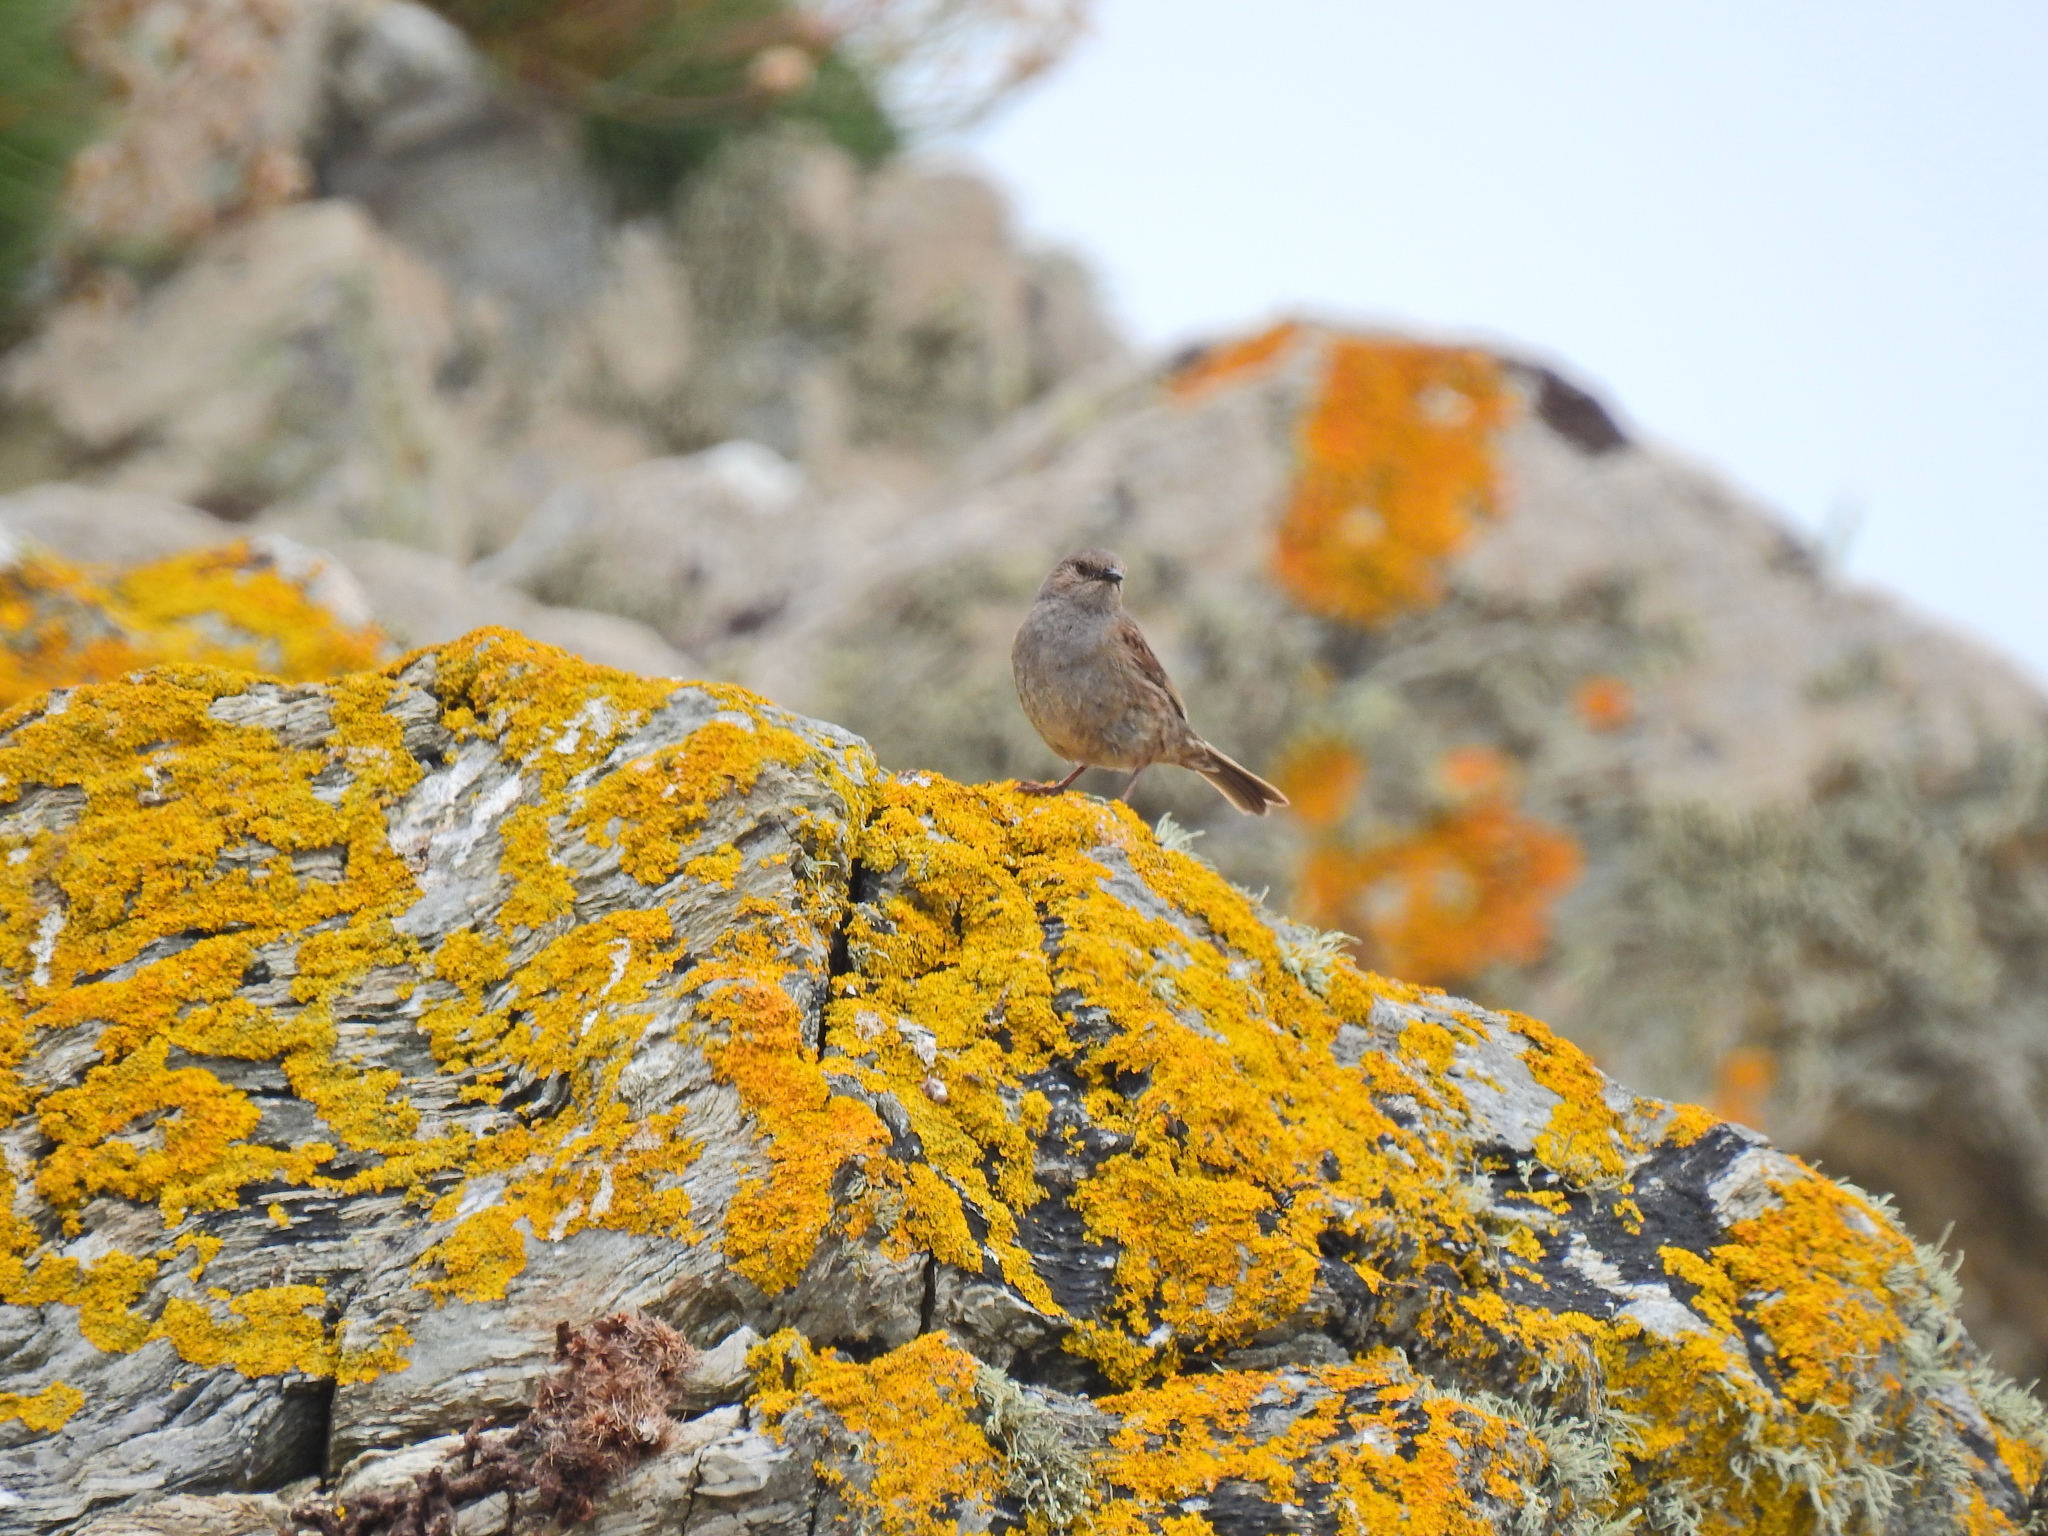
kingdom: Animalia
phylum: Chordata
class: Aves
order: Passeriformes
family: Prunellidae
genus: Prunella
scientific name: Prunella modularis
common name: Dunnock
